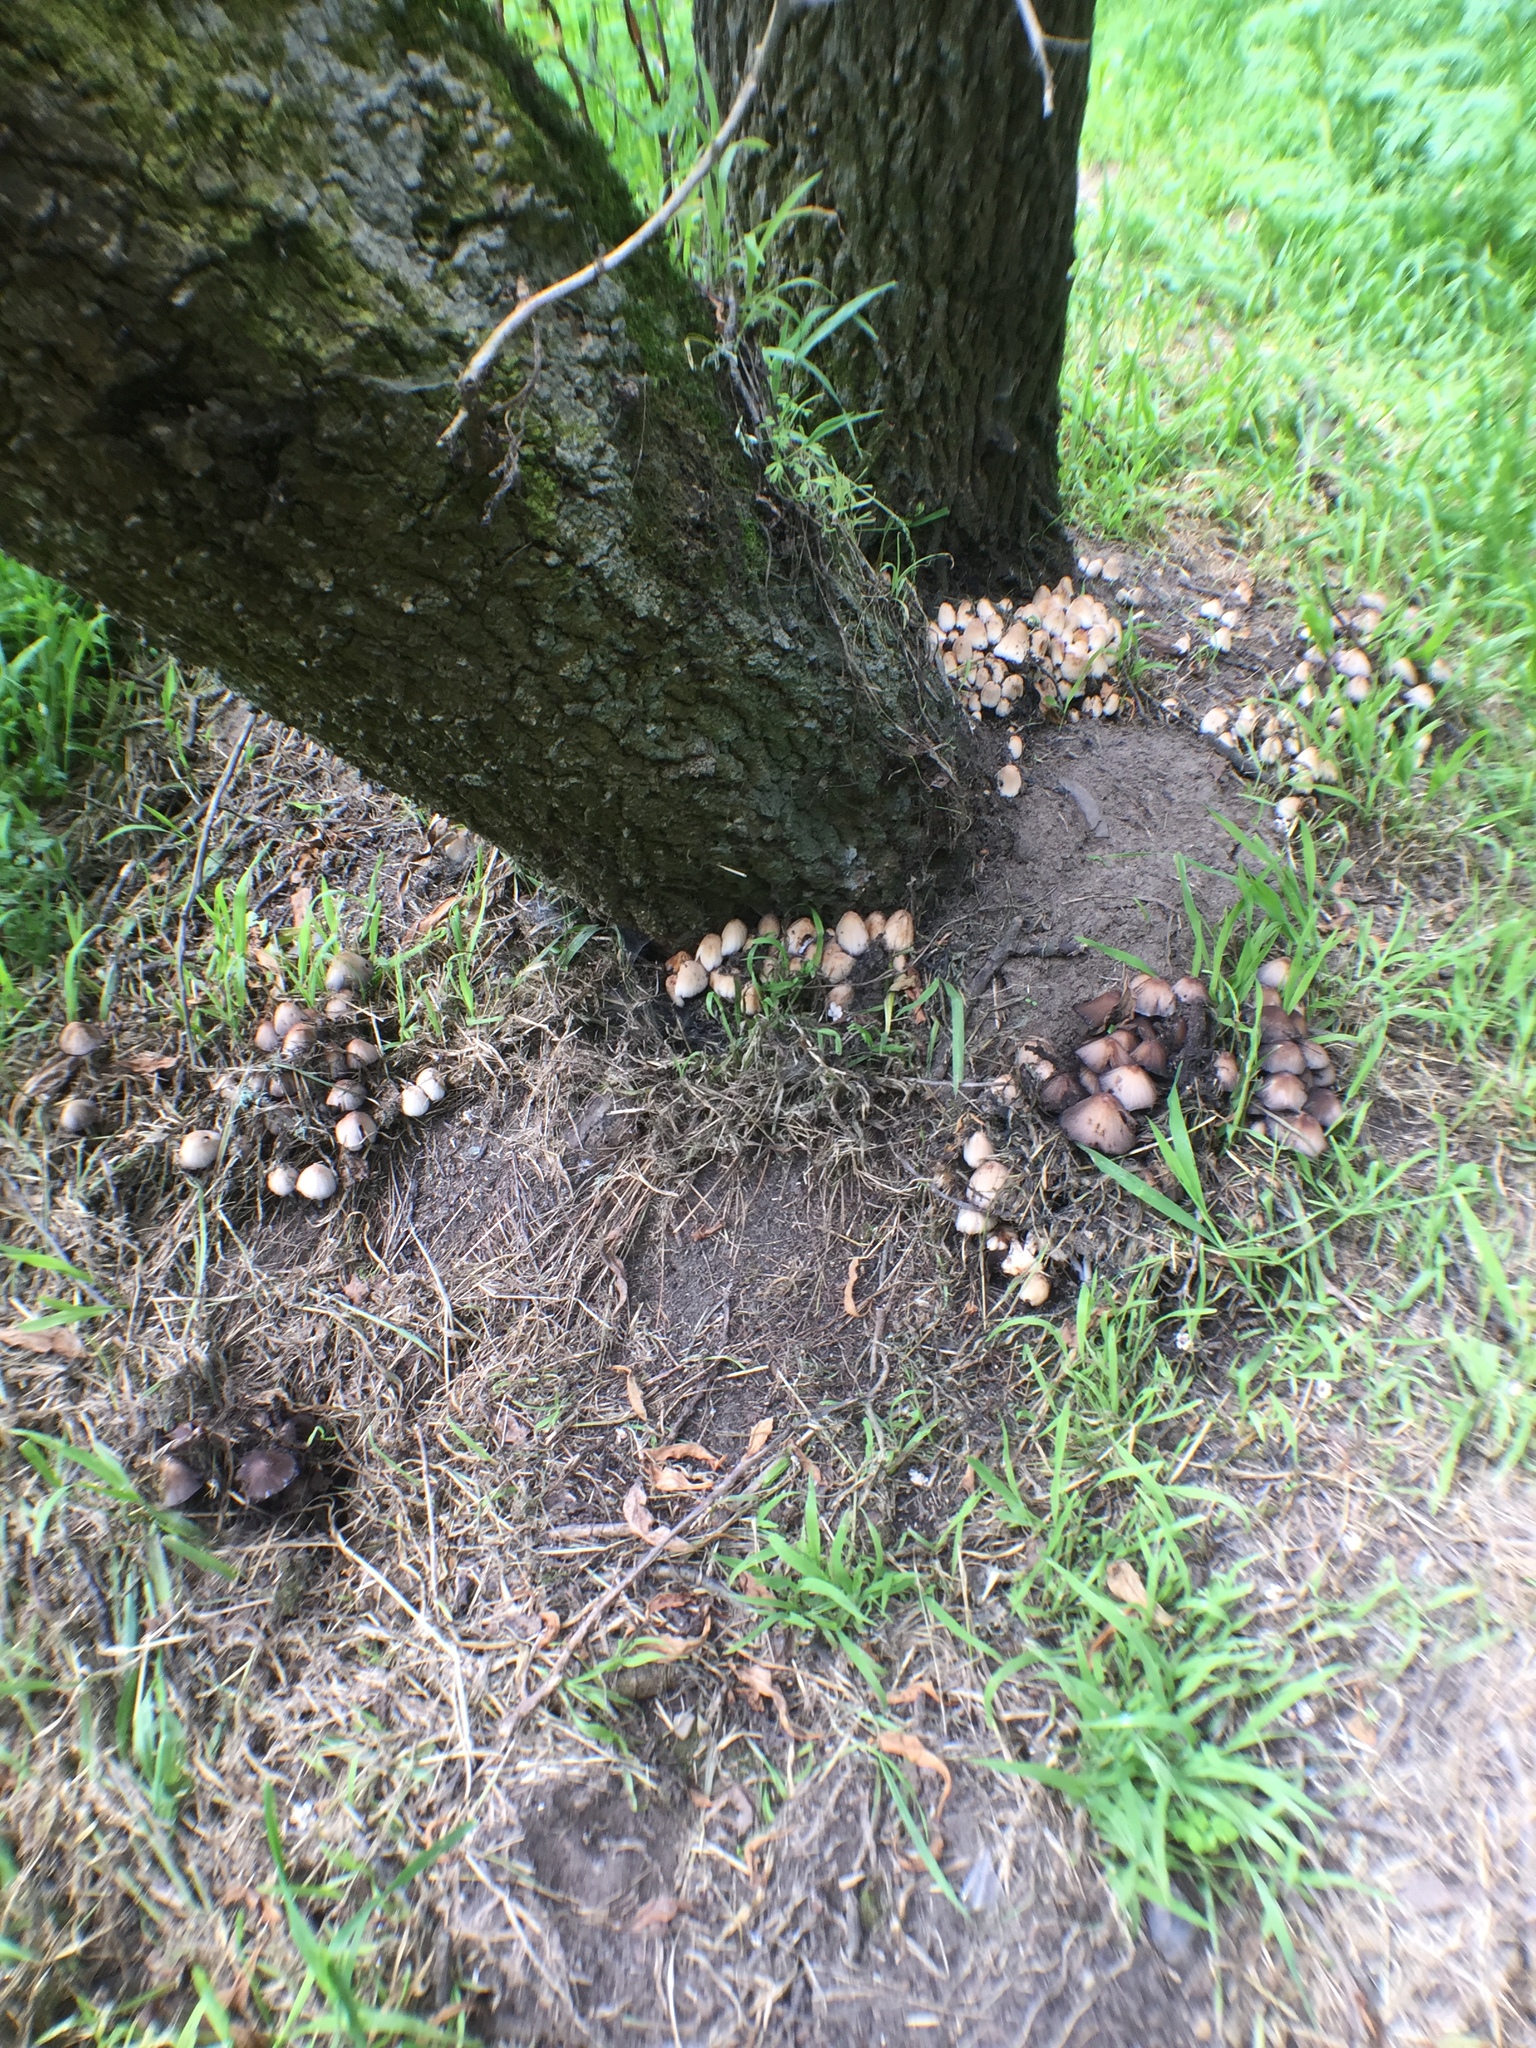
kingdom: Fungi
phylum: Basidiomycota
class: Agaricomycetes
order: Agaricales
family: Psathyrellaceae
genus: Coprinellus
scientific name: Coprinellus micaceus
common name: Glistening ink-cap
